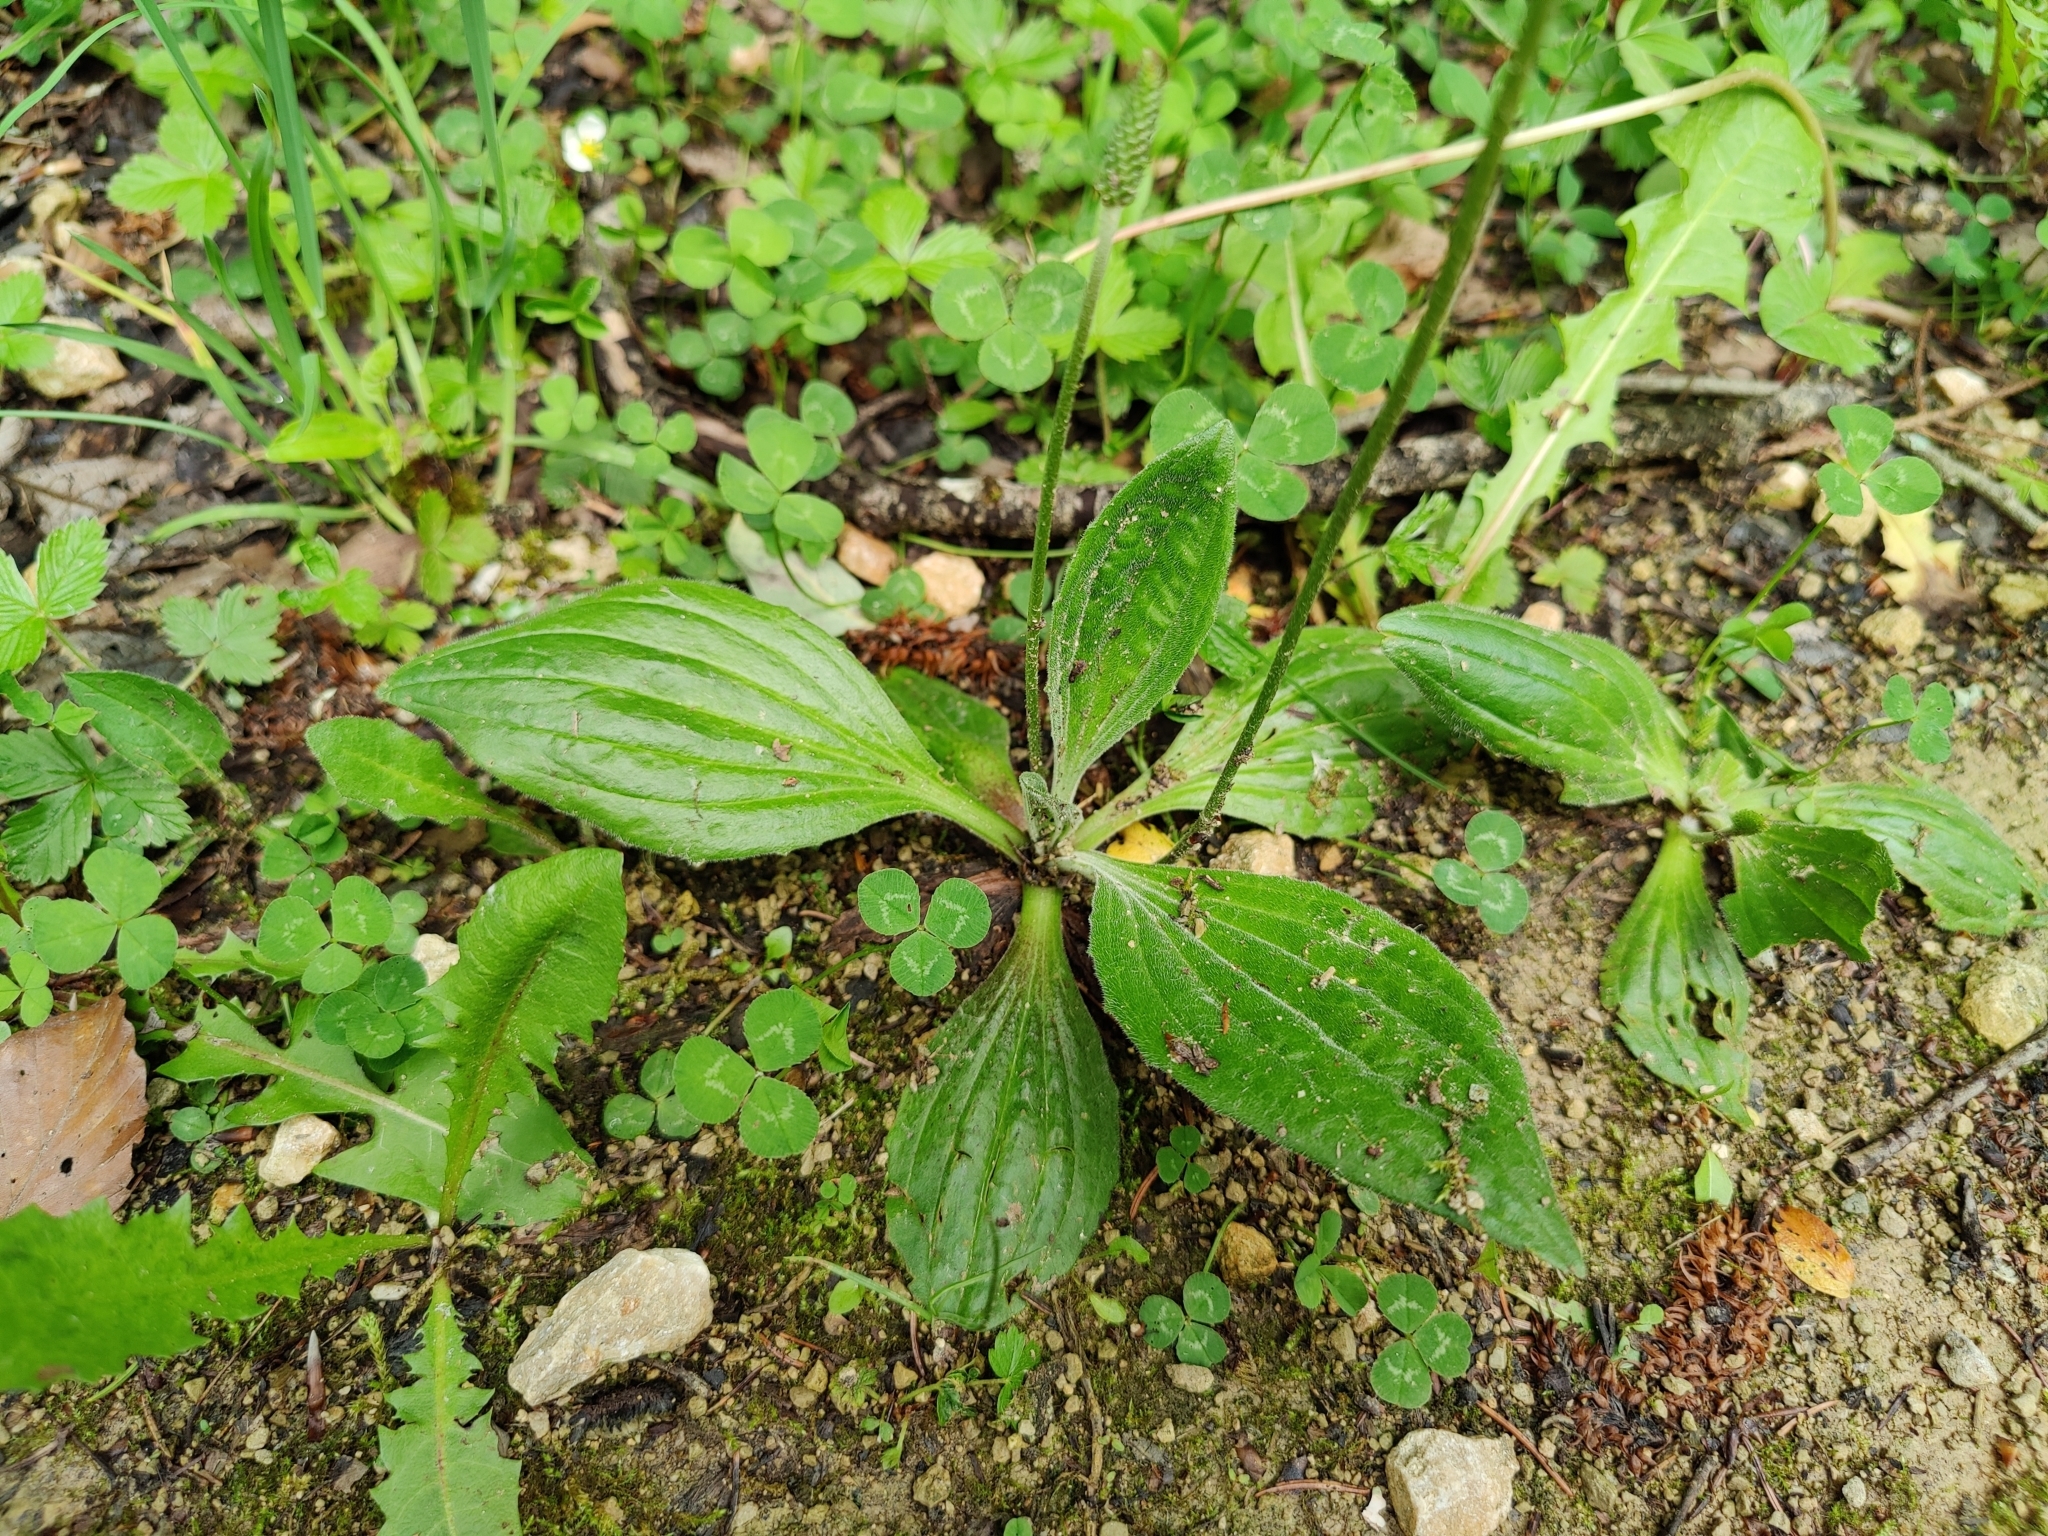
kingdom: Plantae
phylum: Tracheophyta
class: Magnoliopsida
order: Lamiales
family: Plantaginaceae
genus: Plantago
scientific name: Plantago media
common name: Hoary plantain
